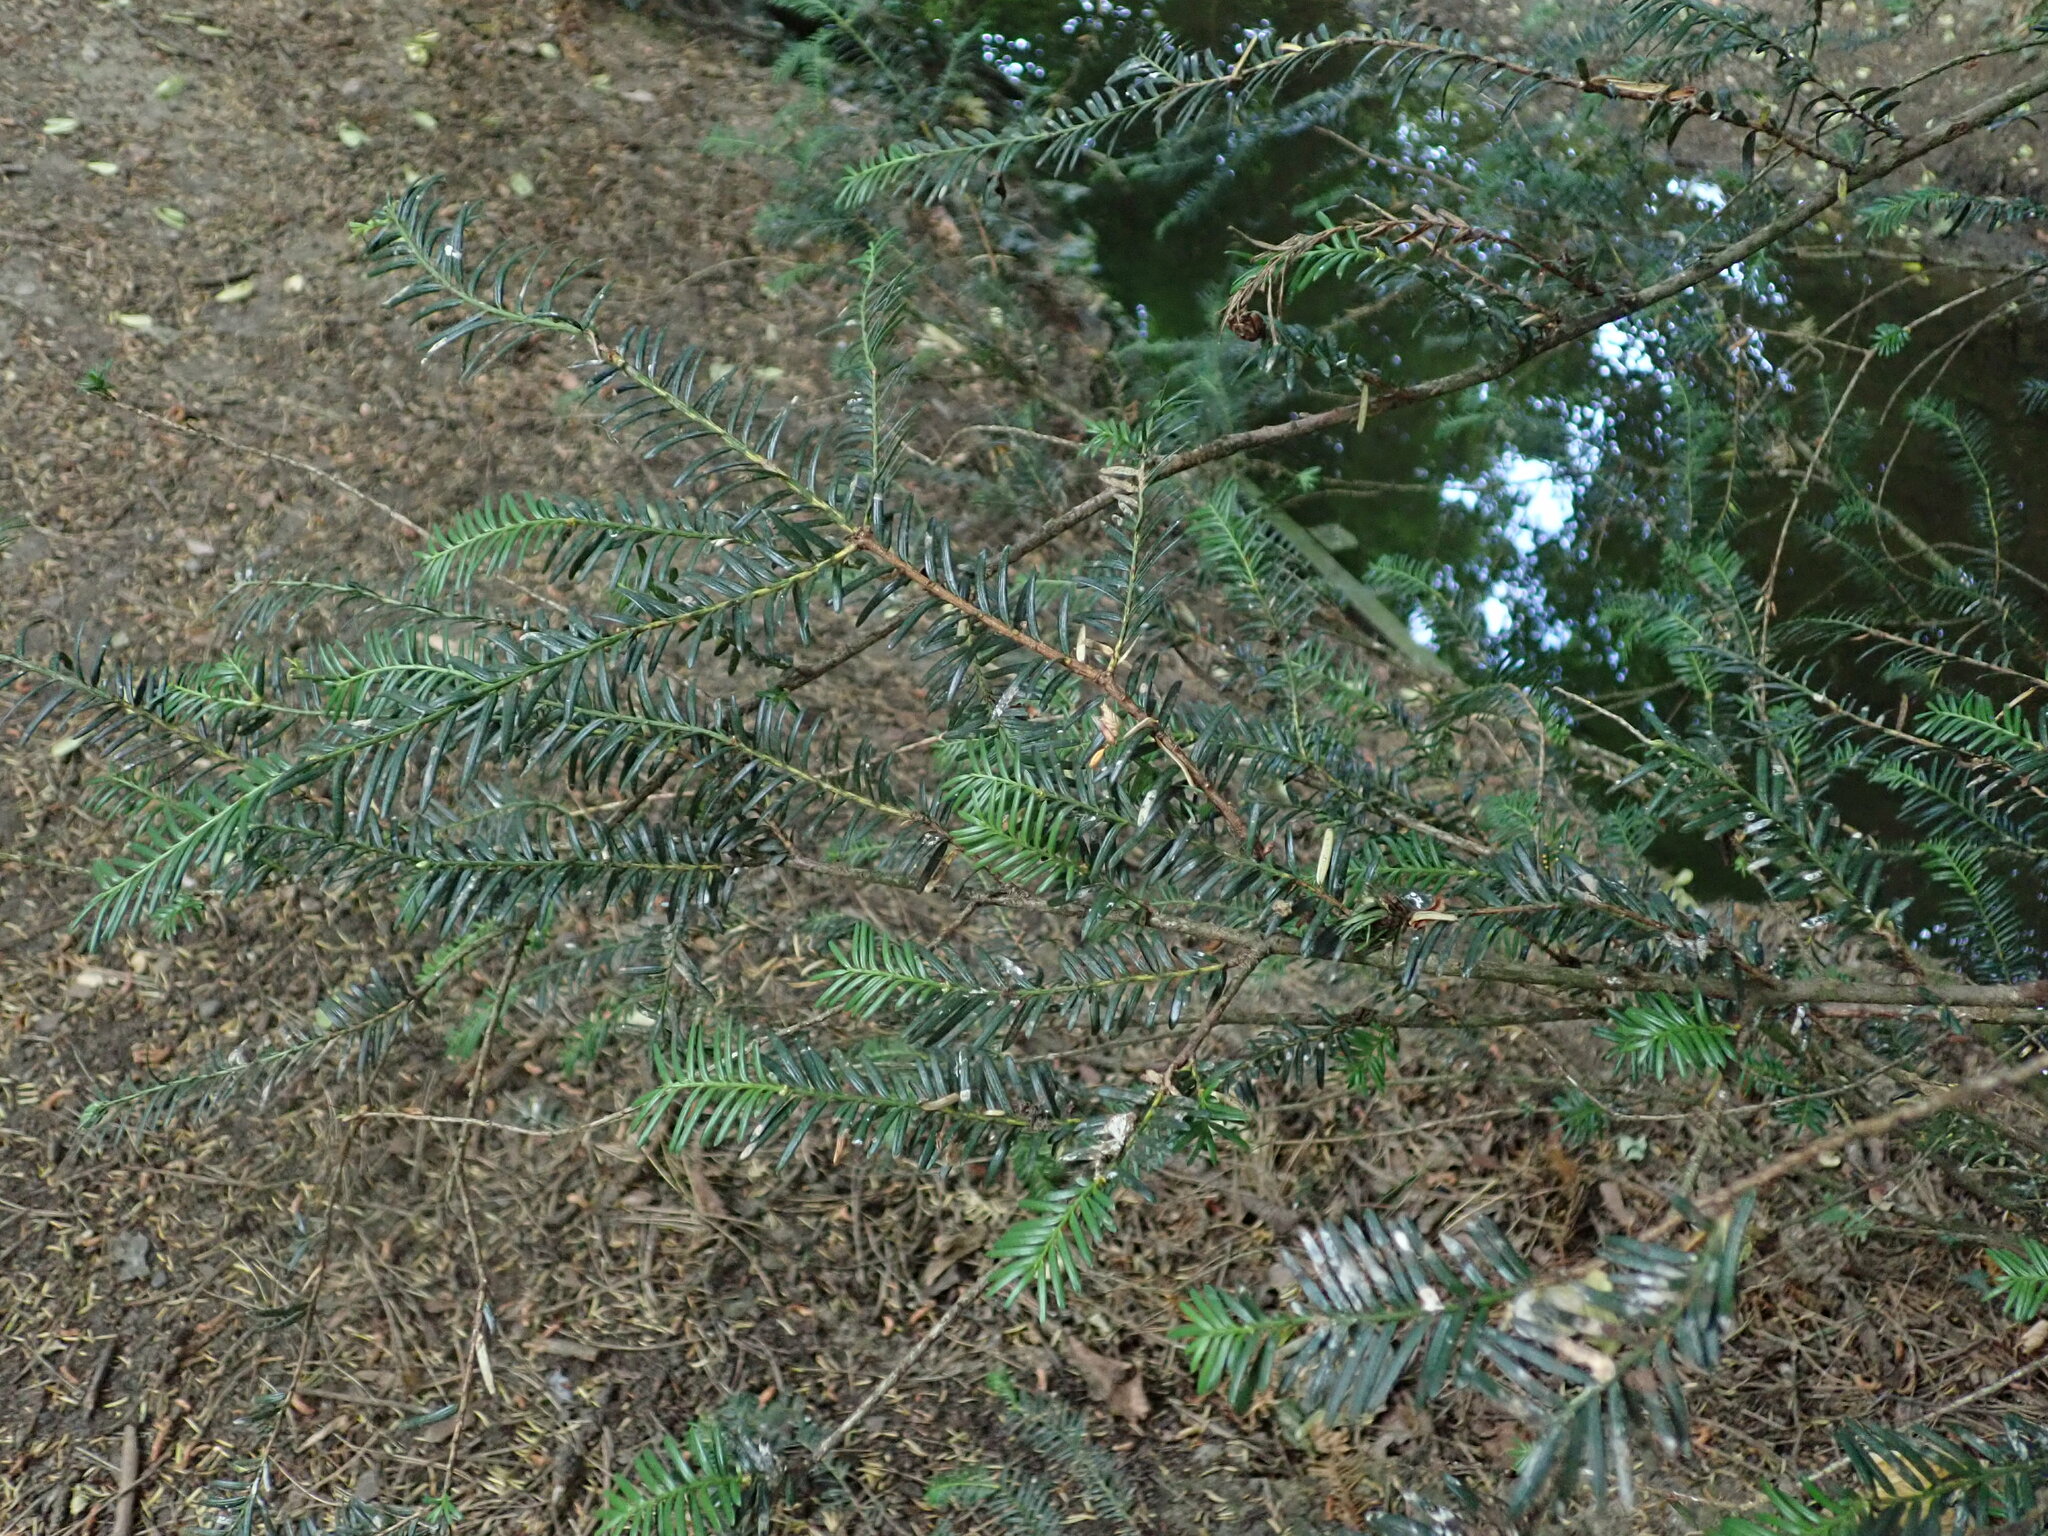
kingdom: Plantae
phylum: Tracheophyta
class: Pinopsida
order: Pinales
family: Taxaceae
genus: Taxus
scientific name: Taxus baccata
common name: Yew
